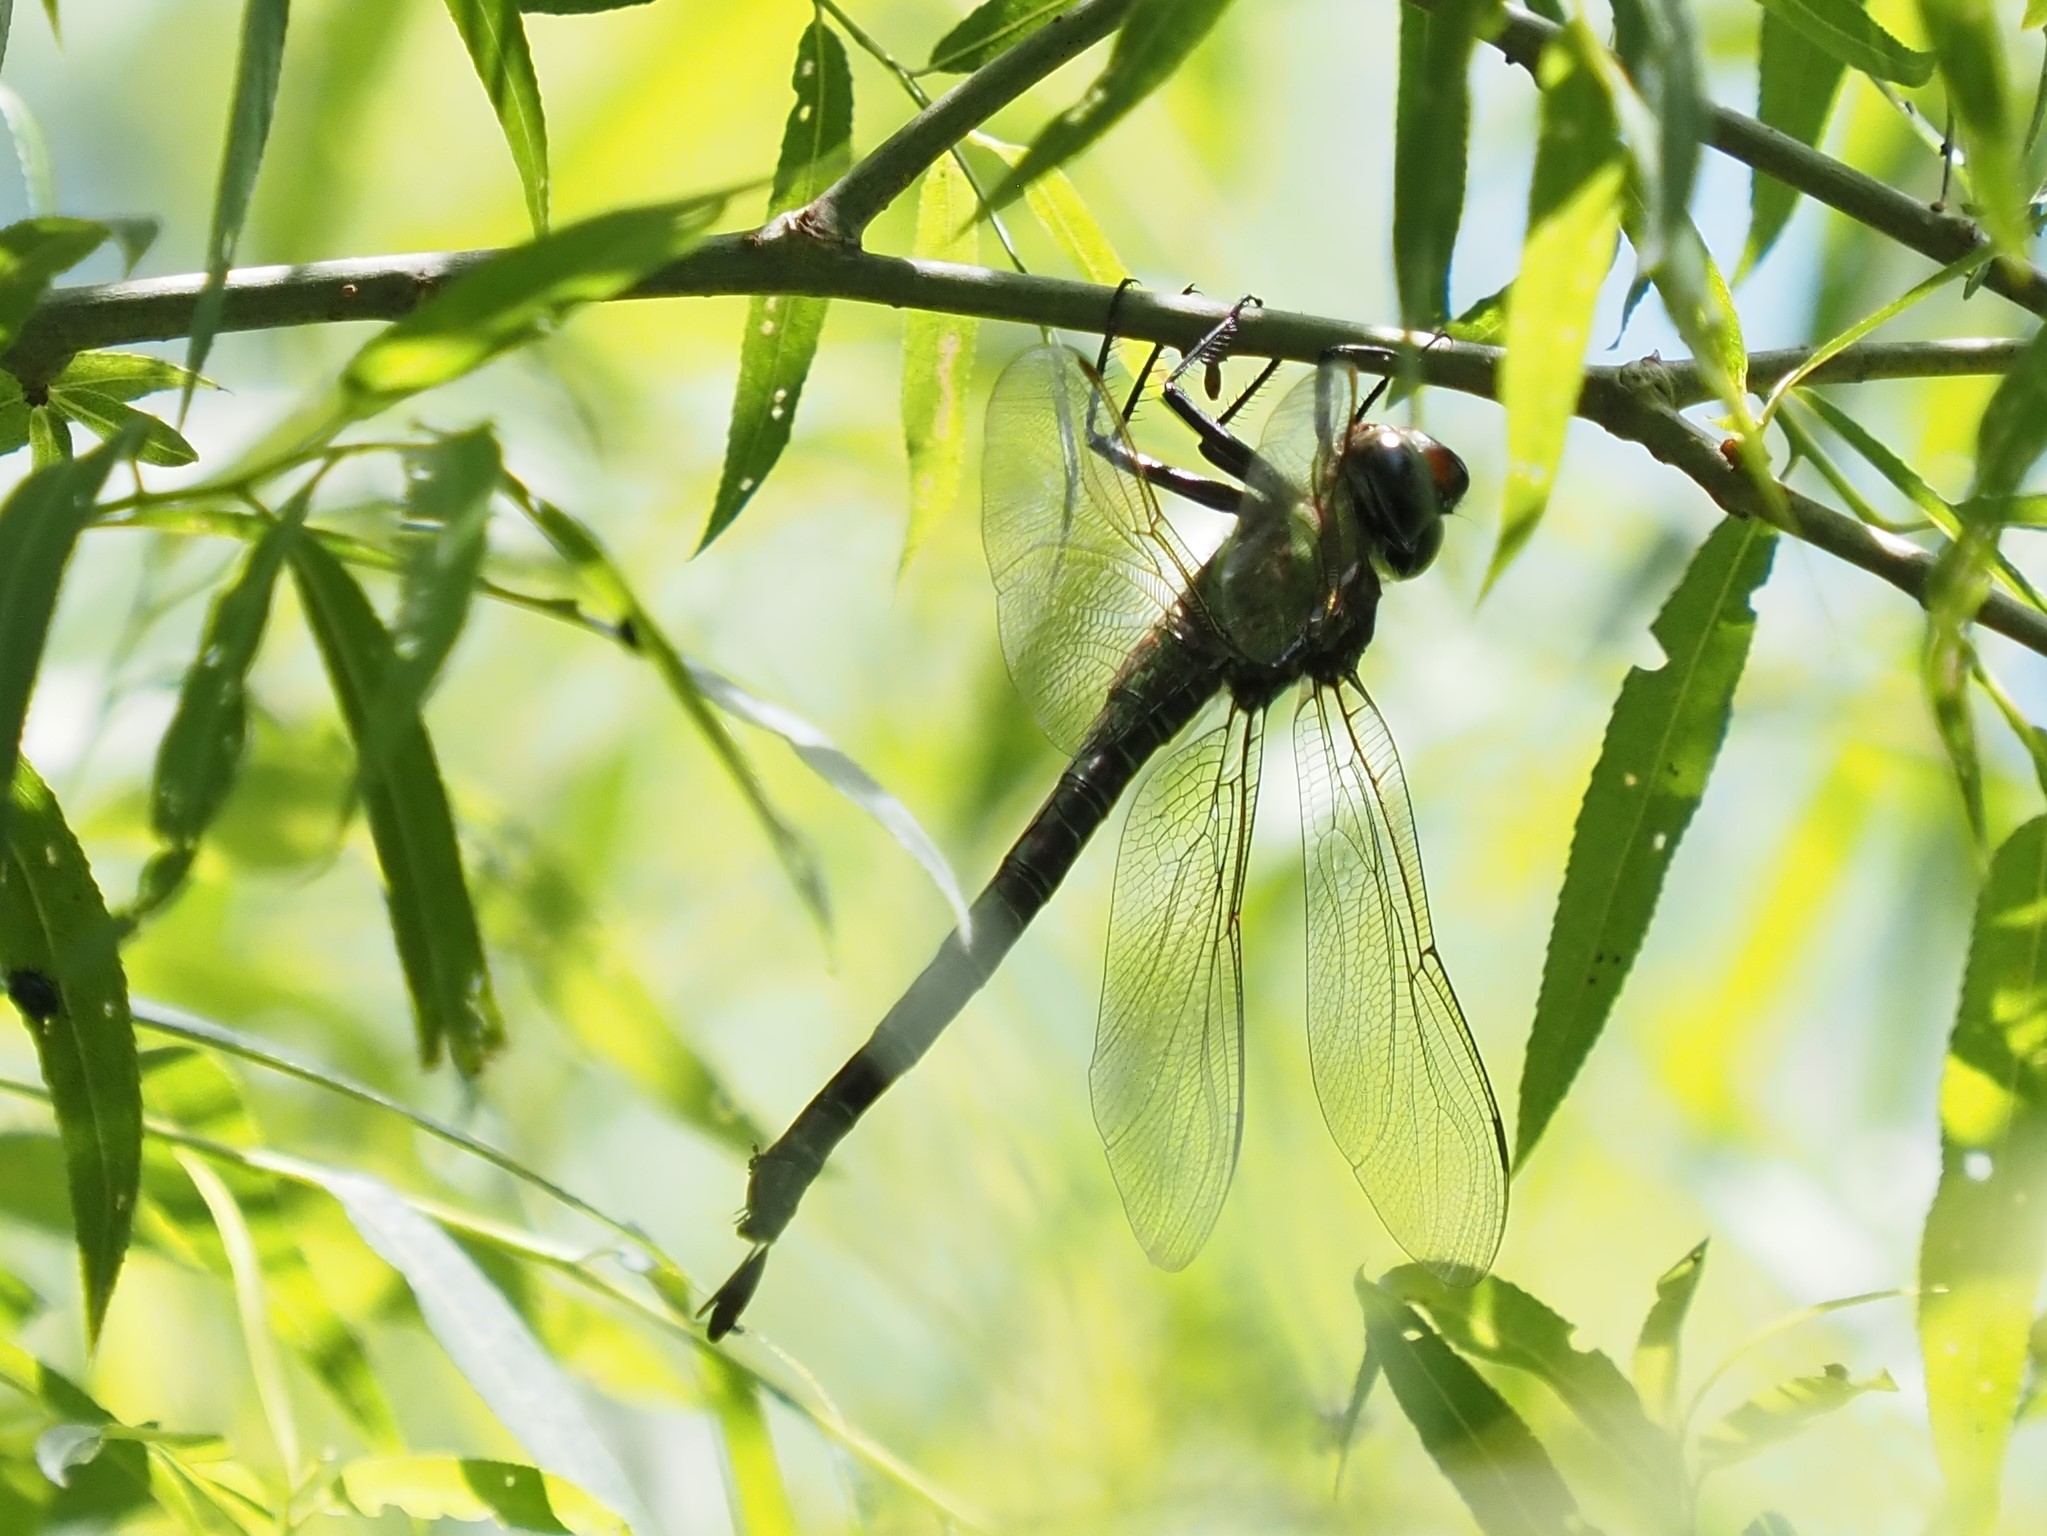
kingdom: Animalia
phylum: Arthropoda
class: Insecta
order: Odonata
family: Aeshnidae
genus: Epiaeschna
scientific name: Epiaeschna heros
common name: Swamp darner
